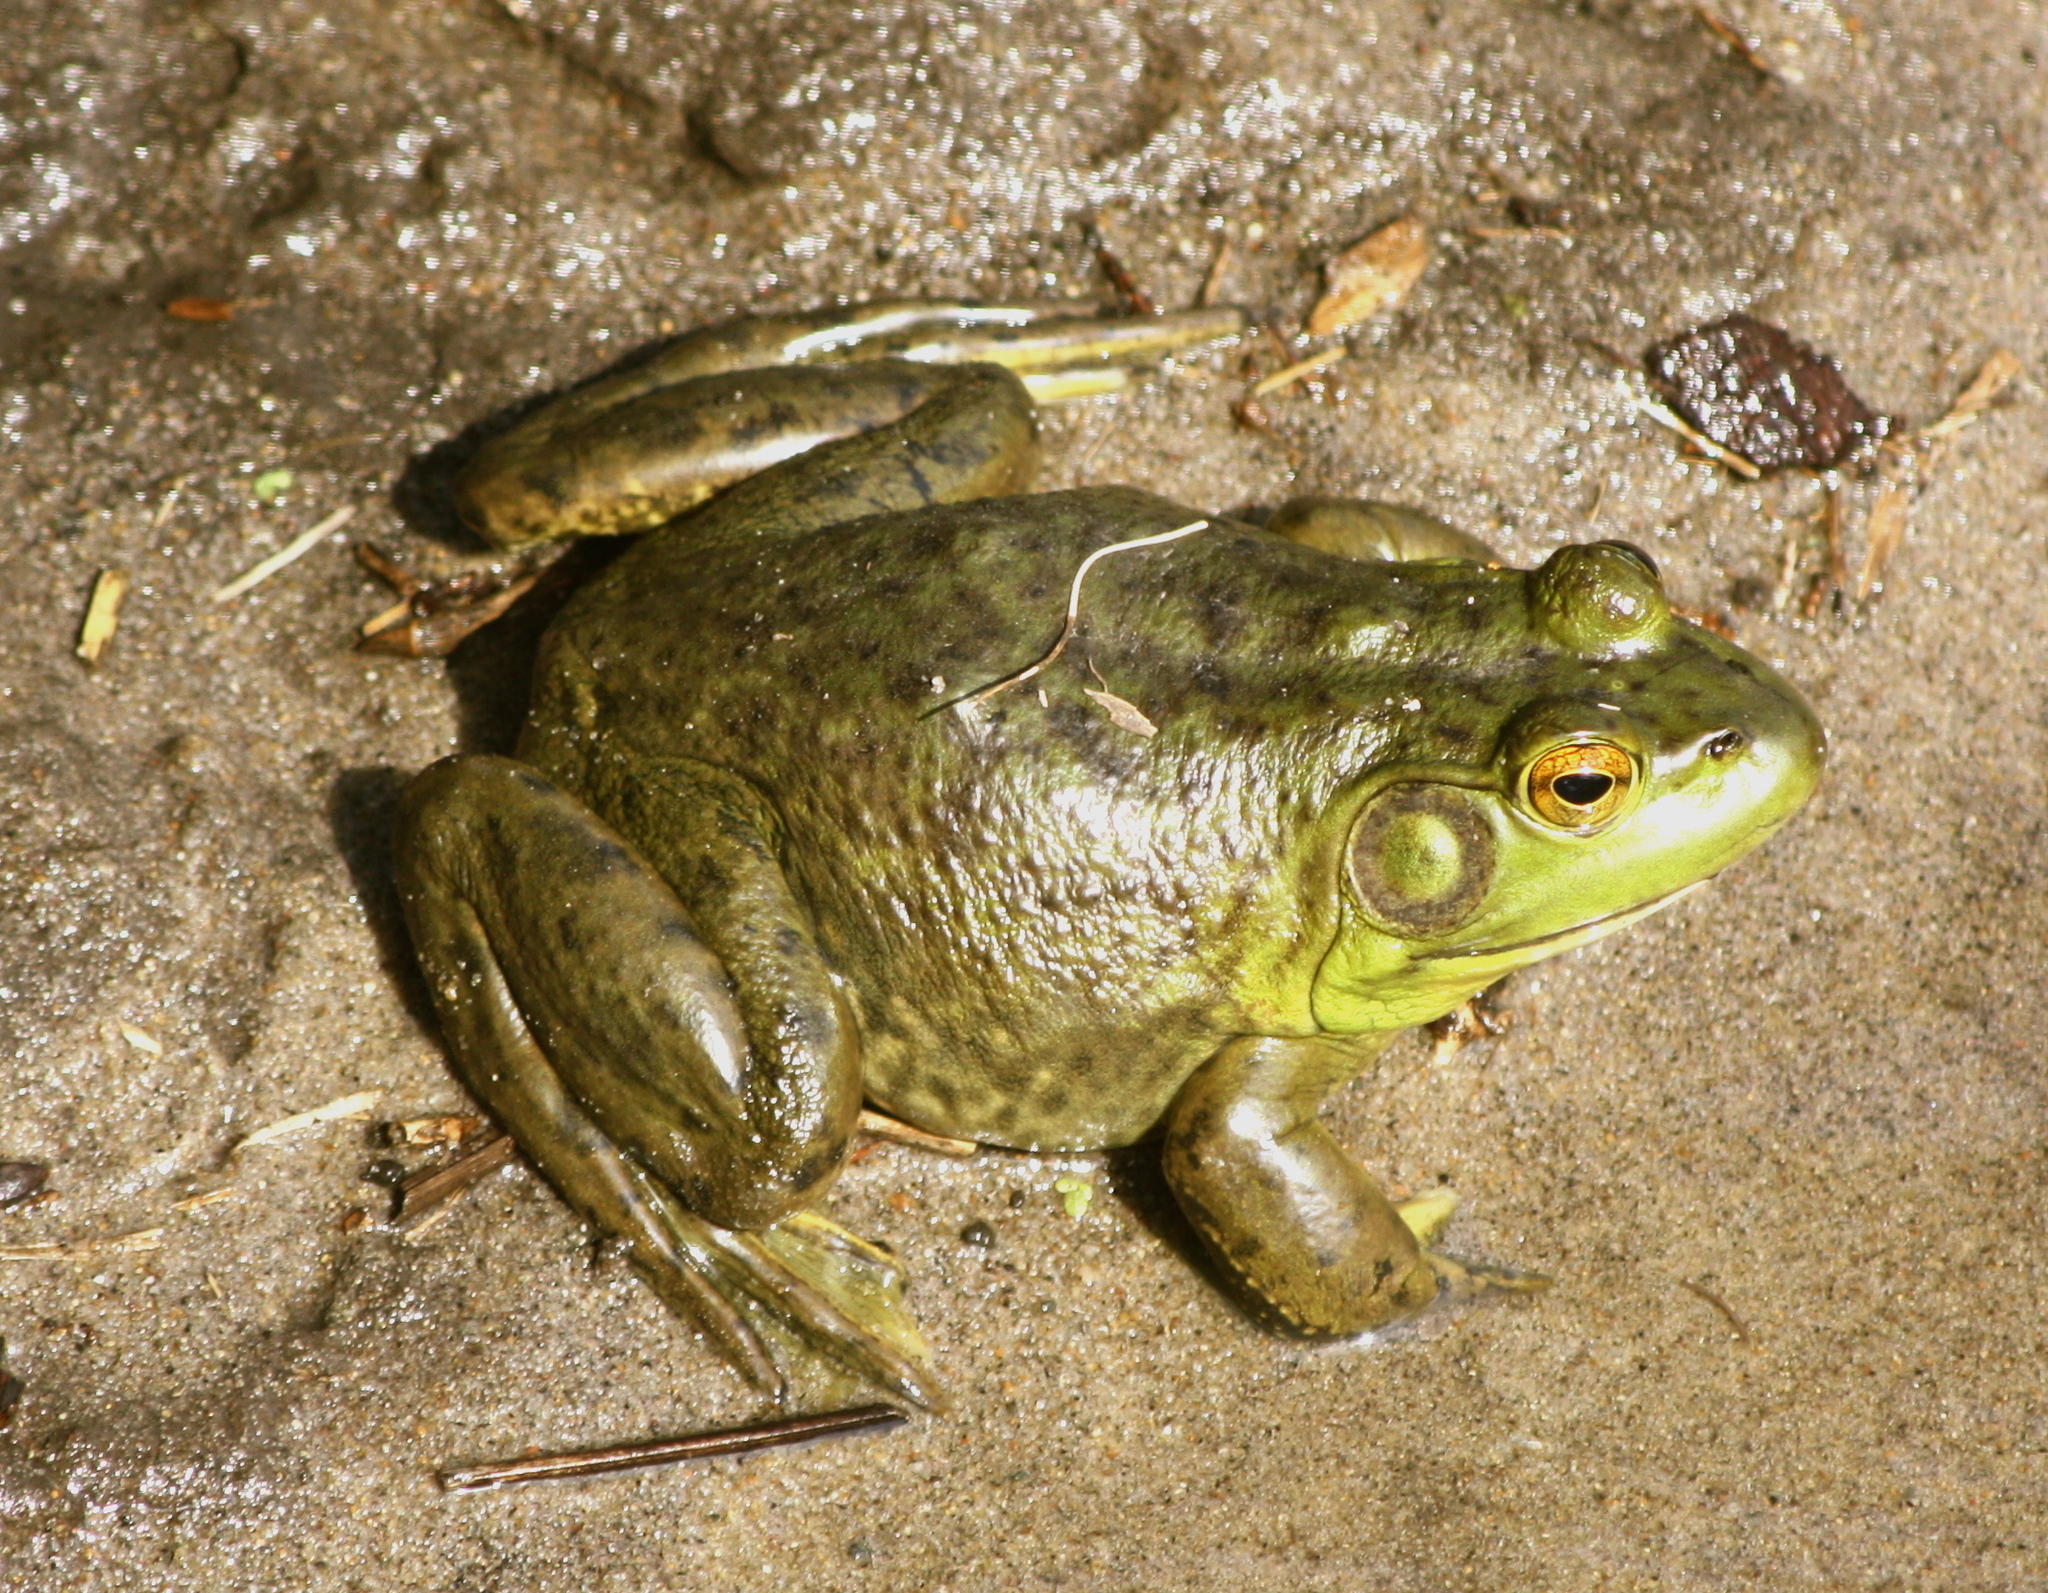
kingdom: Animalia
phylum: Chordata
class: Amphibia
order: Anura
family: Ranidae
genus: Lithobates
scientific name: Lithobates catesbeianus
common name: American bullfrog
